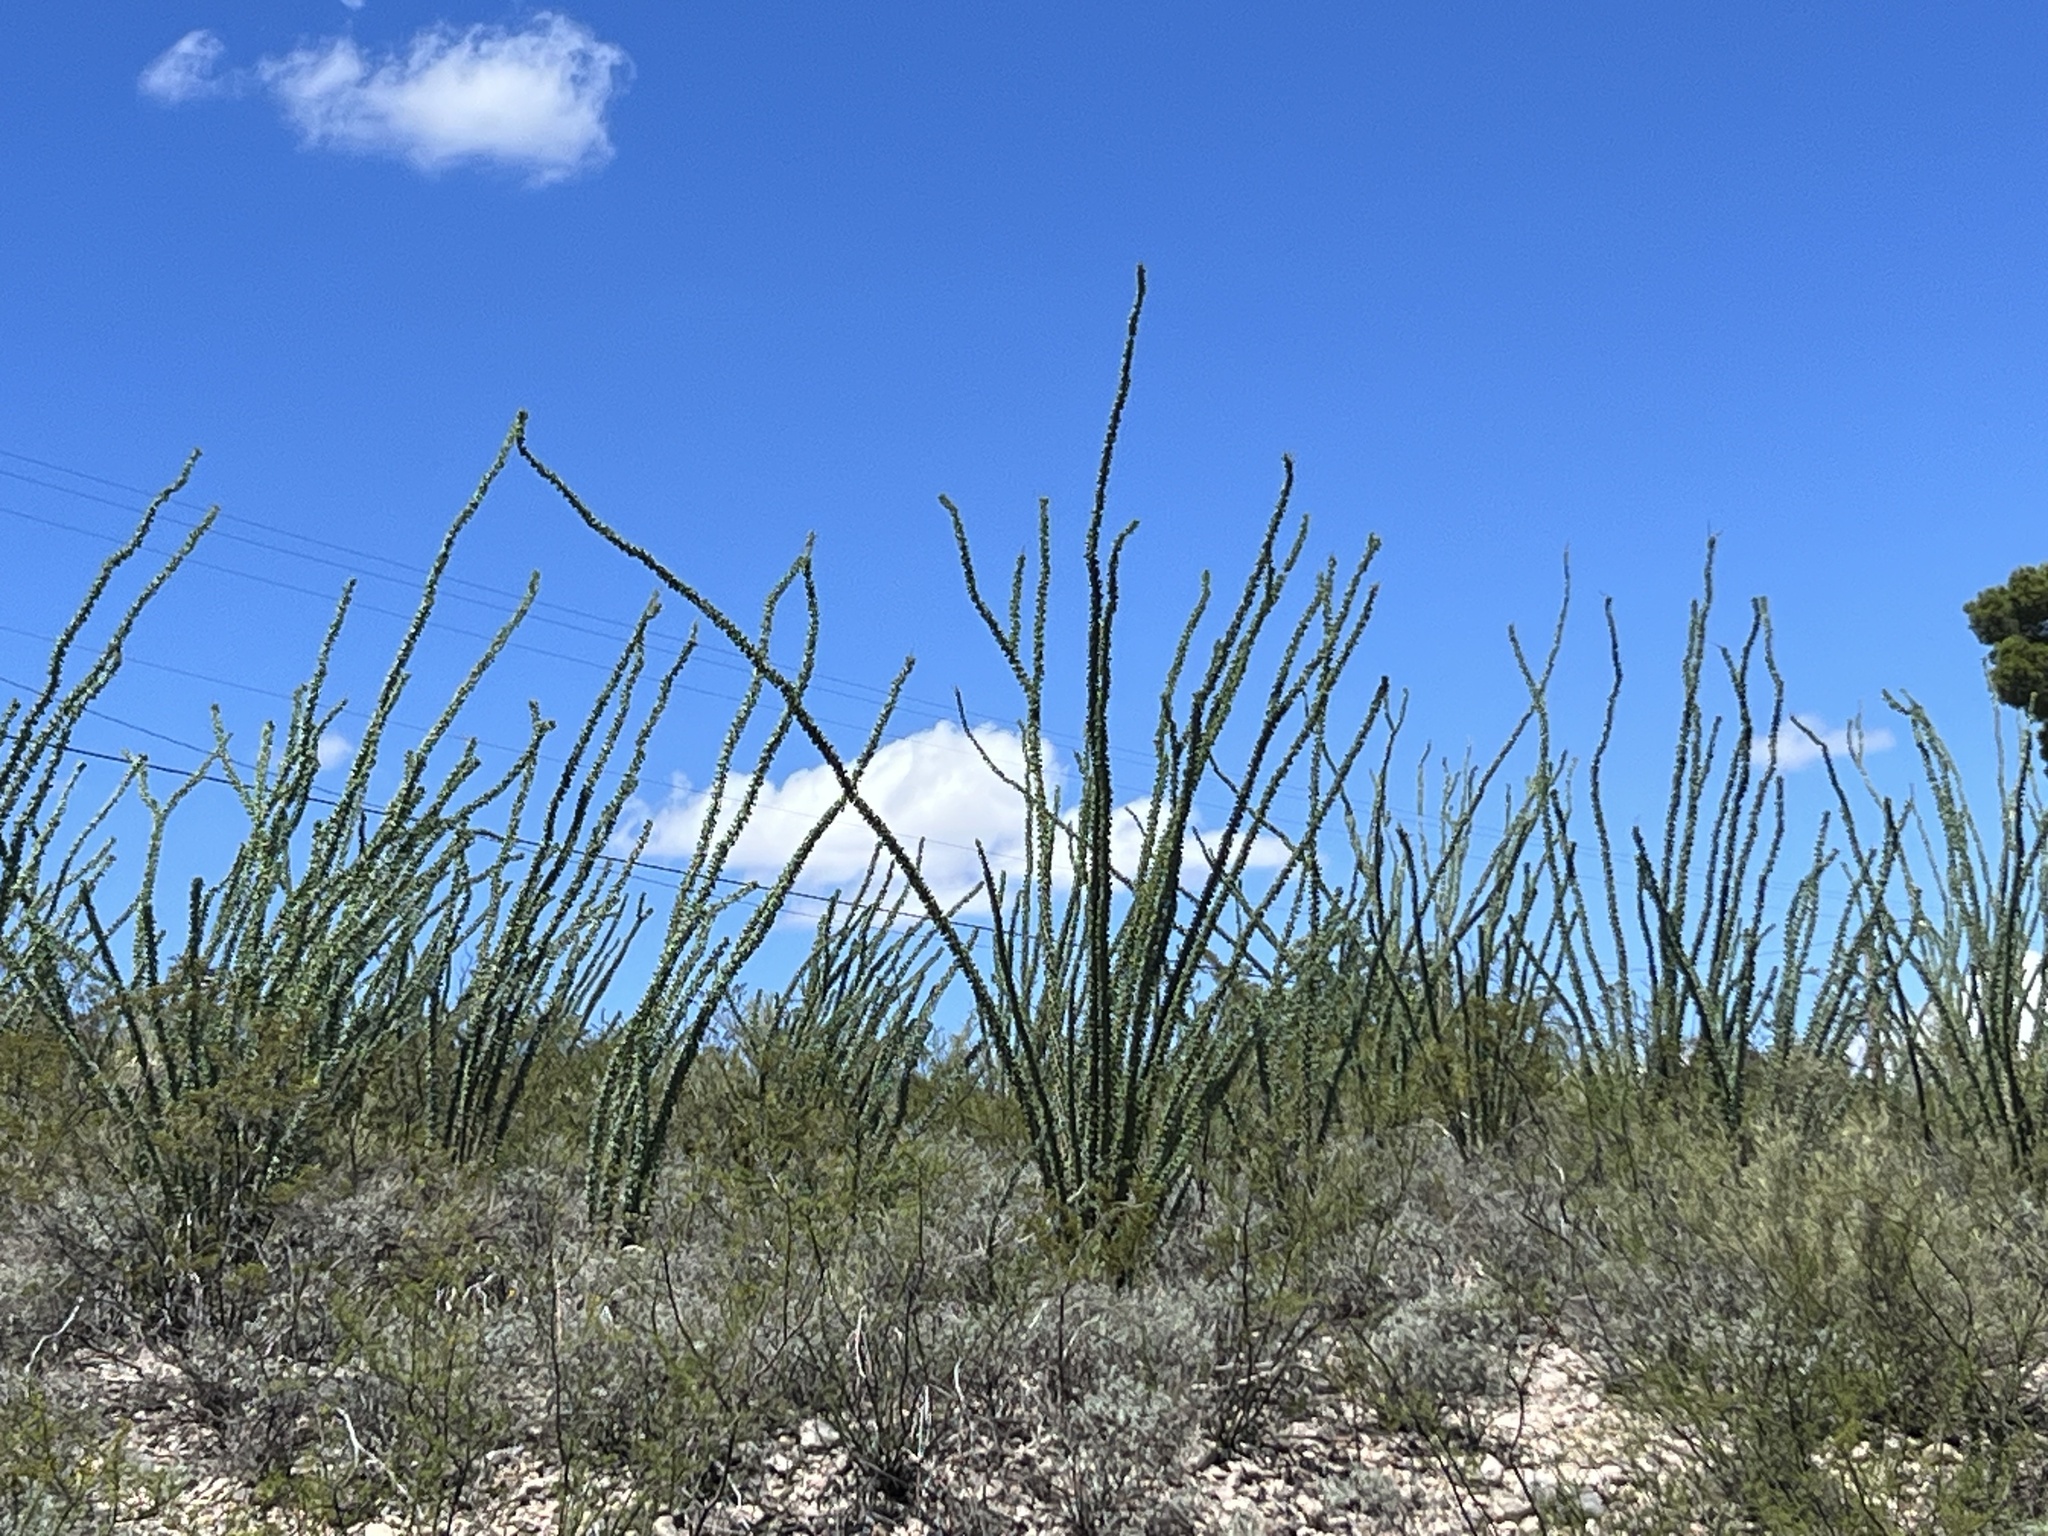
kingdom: Plantae
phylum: Tracheophyta
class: Magnoliopsida
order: Ericales
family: Fouquieriaceae
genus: Fouquieria
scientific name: Fouquieria splendens
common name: Vine-cactus
